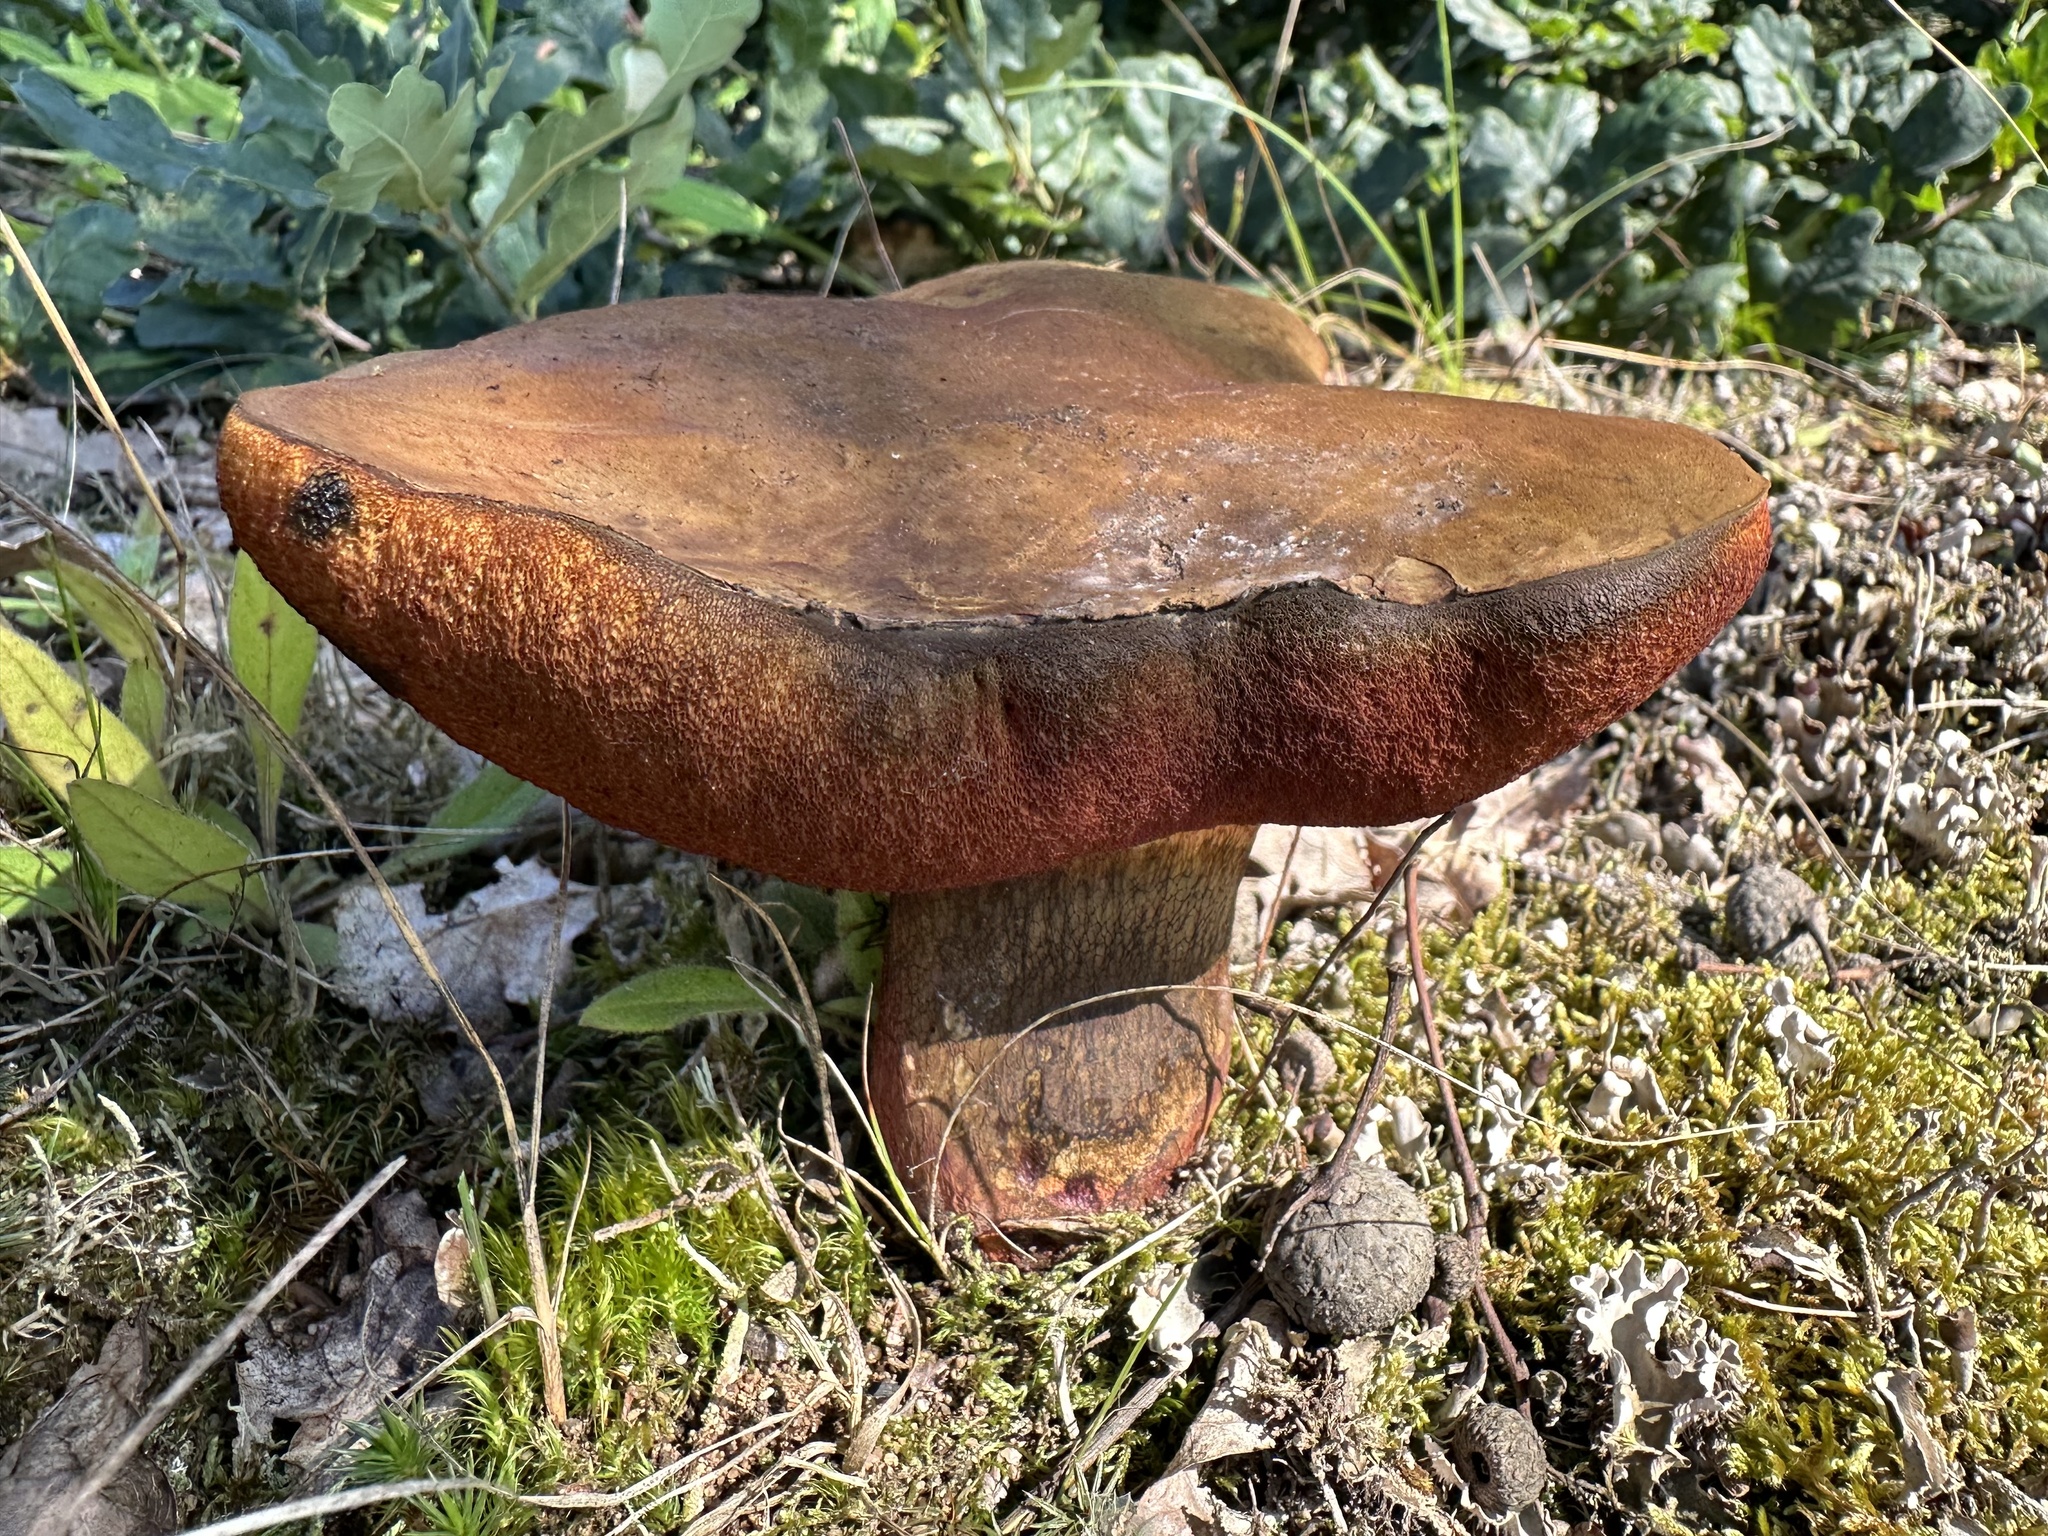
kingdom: Fungi
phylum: Basidiomycota
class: Agaricomycetes
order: Boletales
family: Boletaceae
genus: Suillellus
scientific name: Suillellus luridus
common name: Lurid bolete
